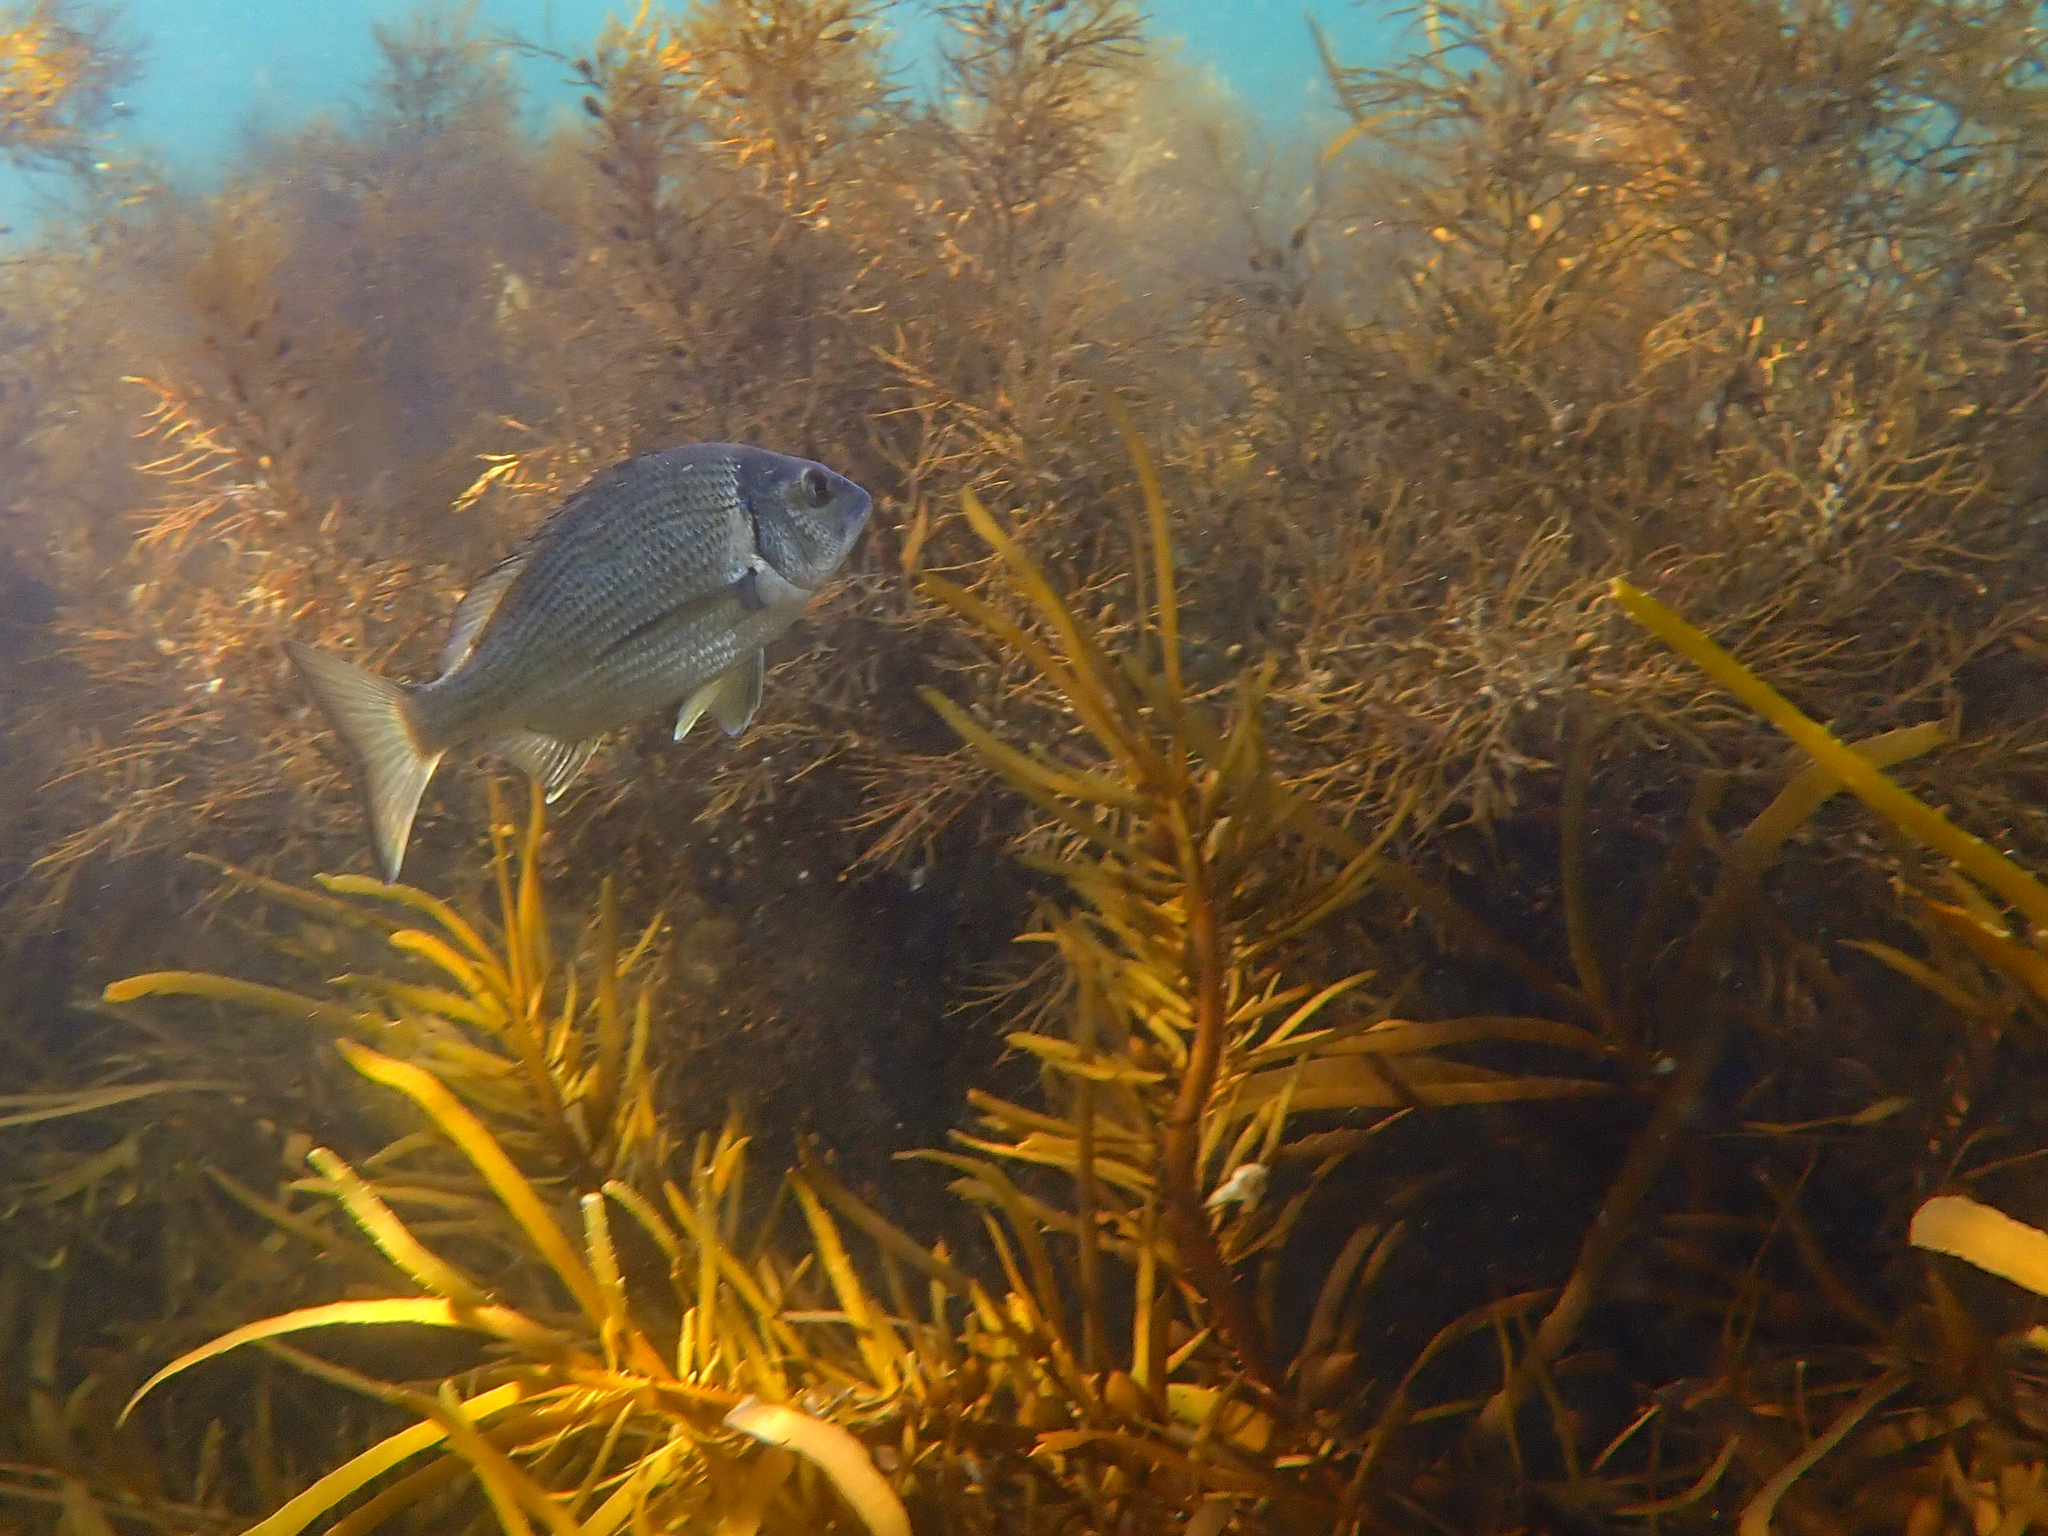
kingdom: Animalia
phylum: Chordata
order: Perciformes
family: Sparidae
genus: Acanthopagrus
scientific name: Acanthopagrus butcheri
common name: Black bream
